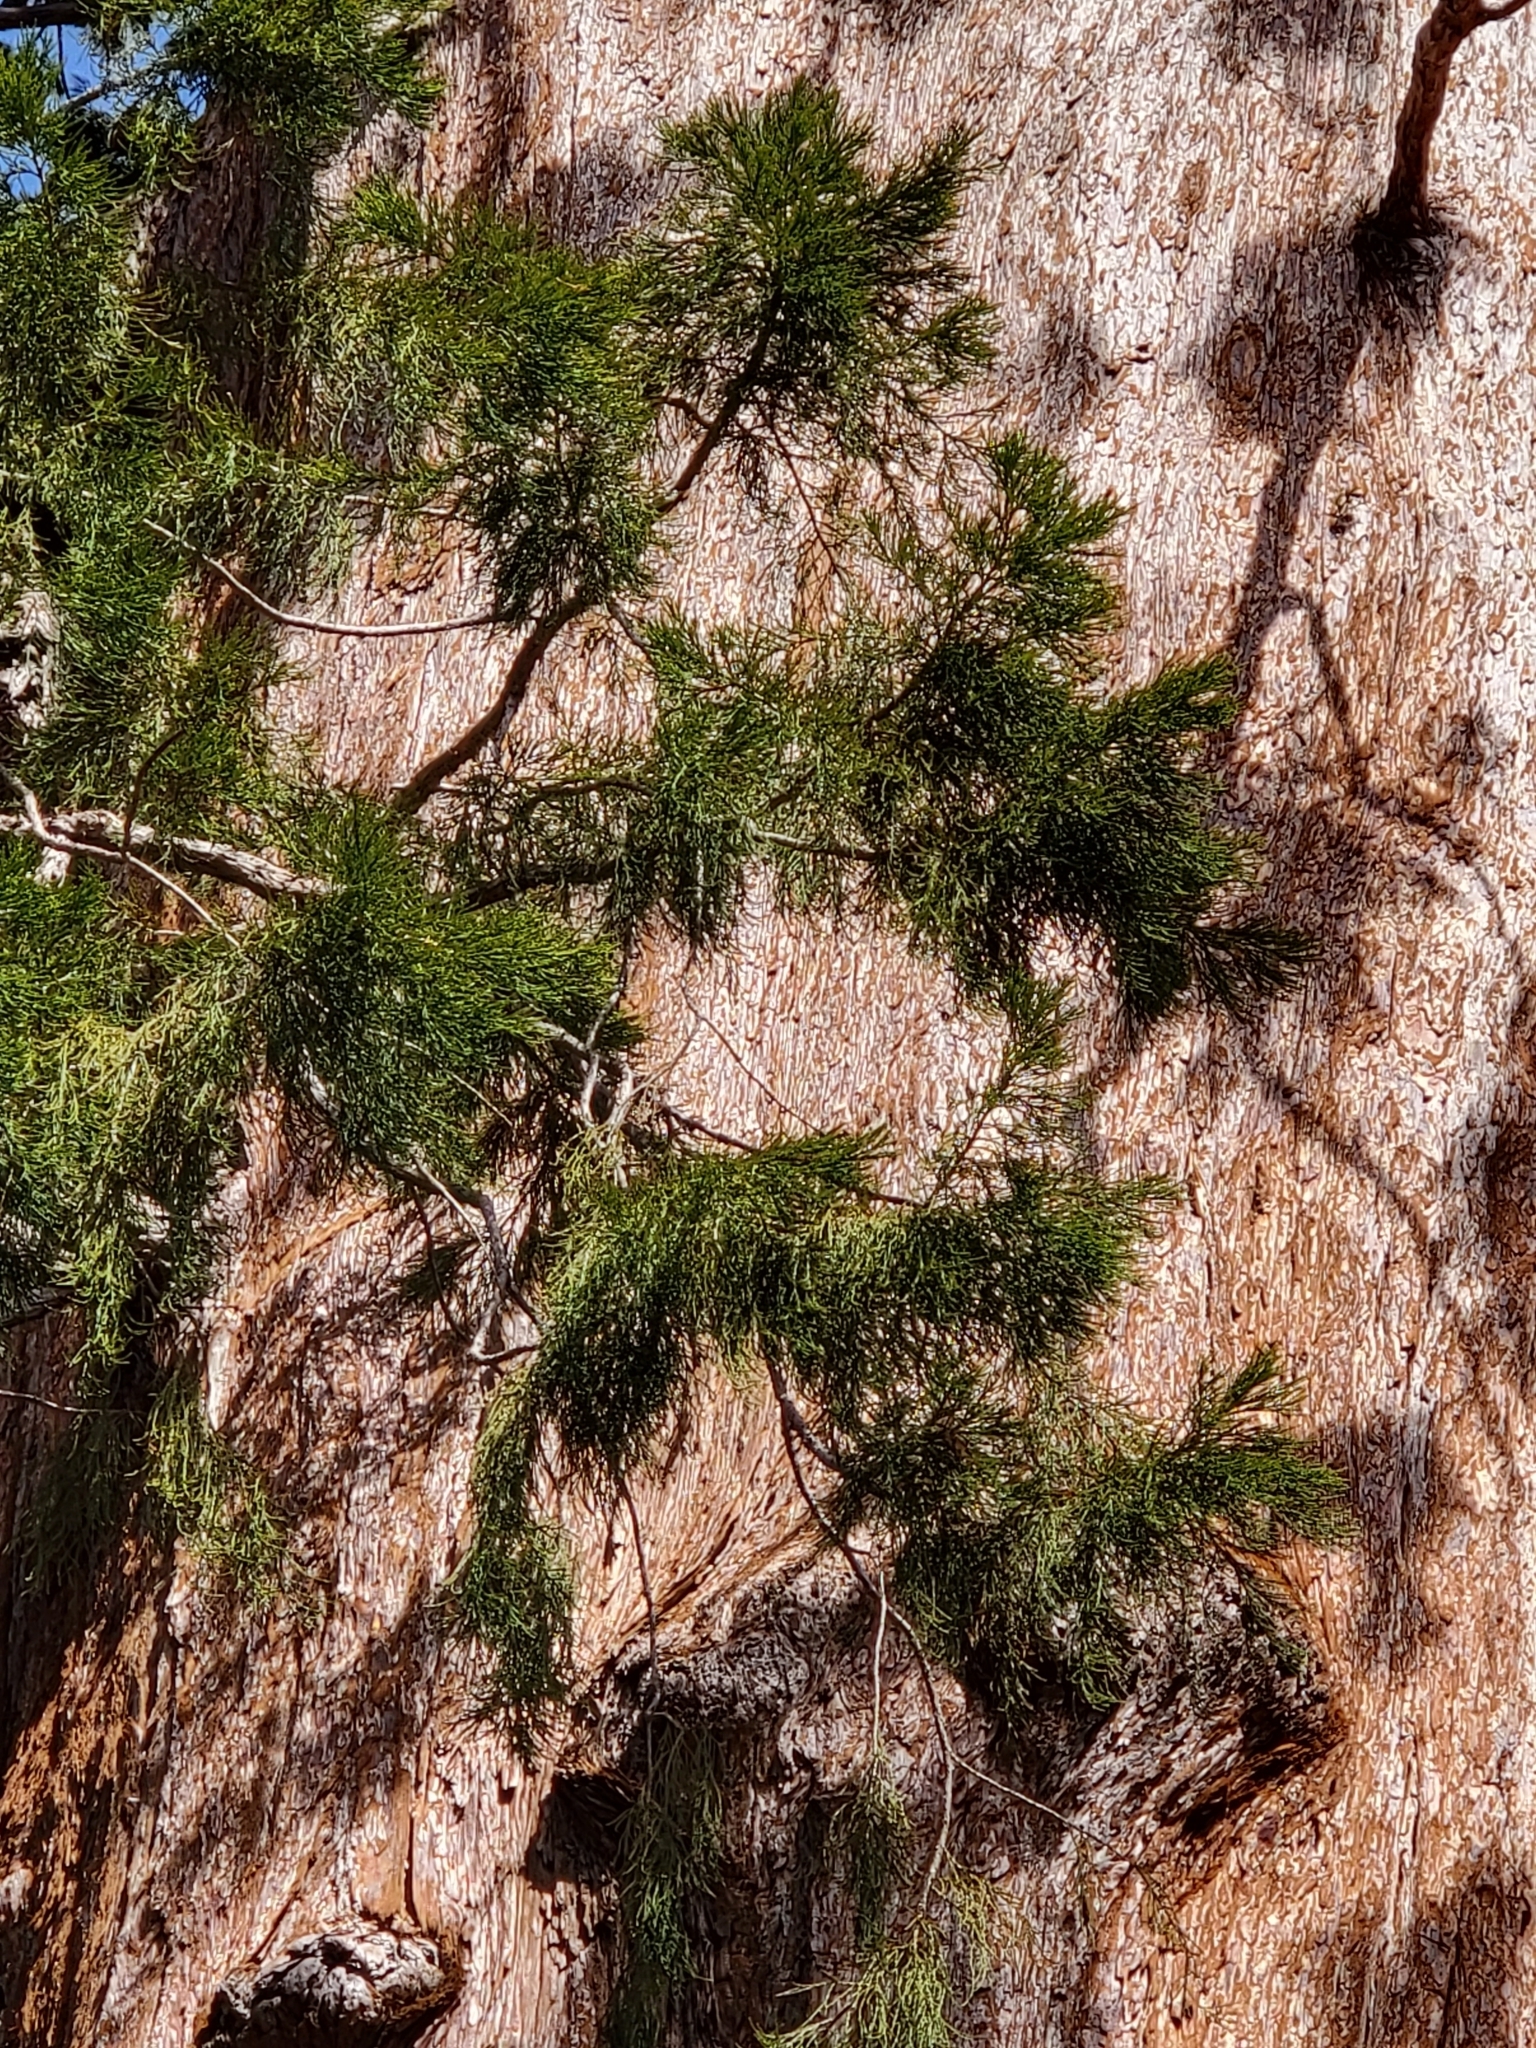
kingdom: Plantae
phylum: Tracheophyta
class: Pinopsida
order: Pinales
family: Cupressaceae
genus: Sequoiadendron
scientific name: Sequoiadendron giganteum
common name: Wellingtonia
